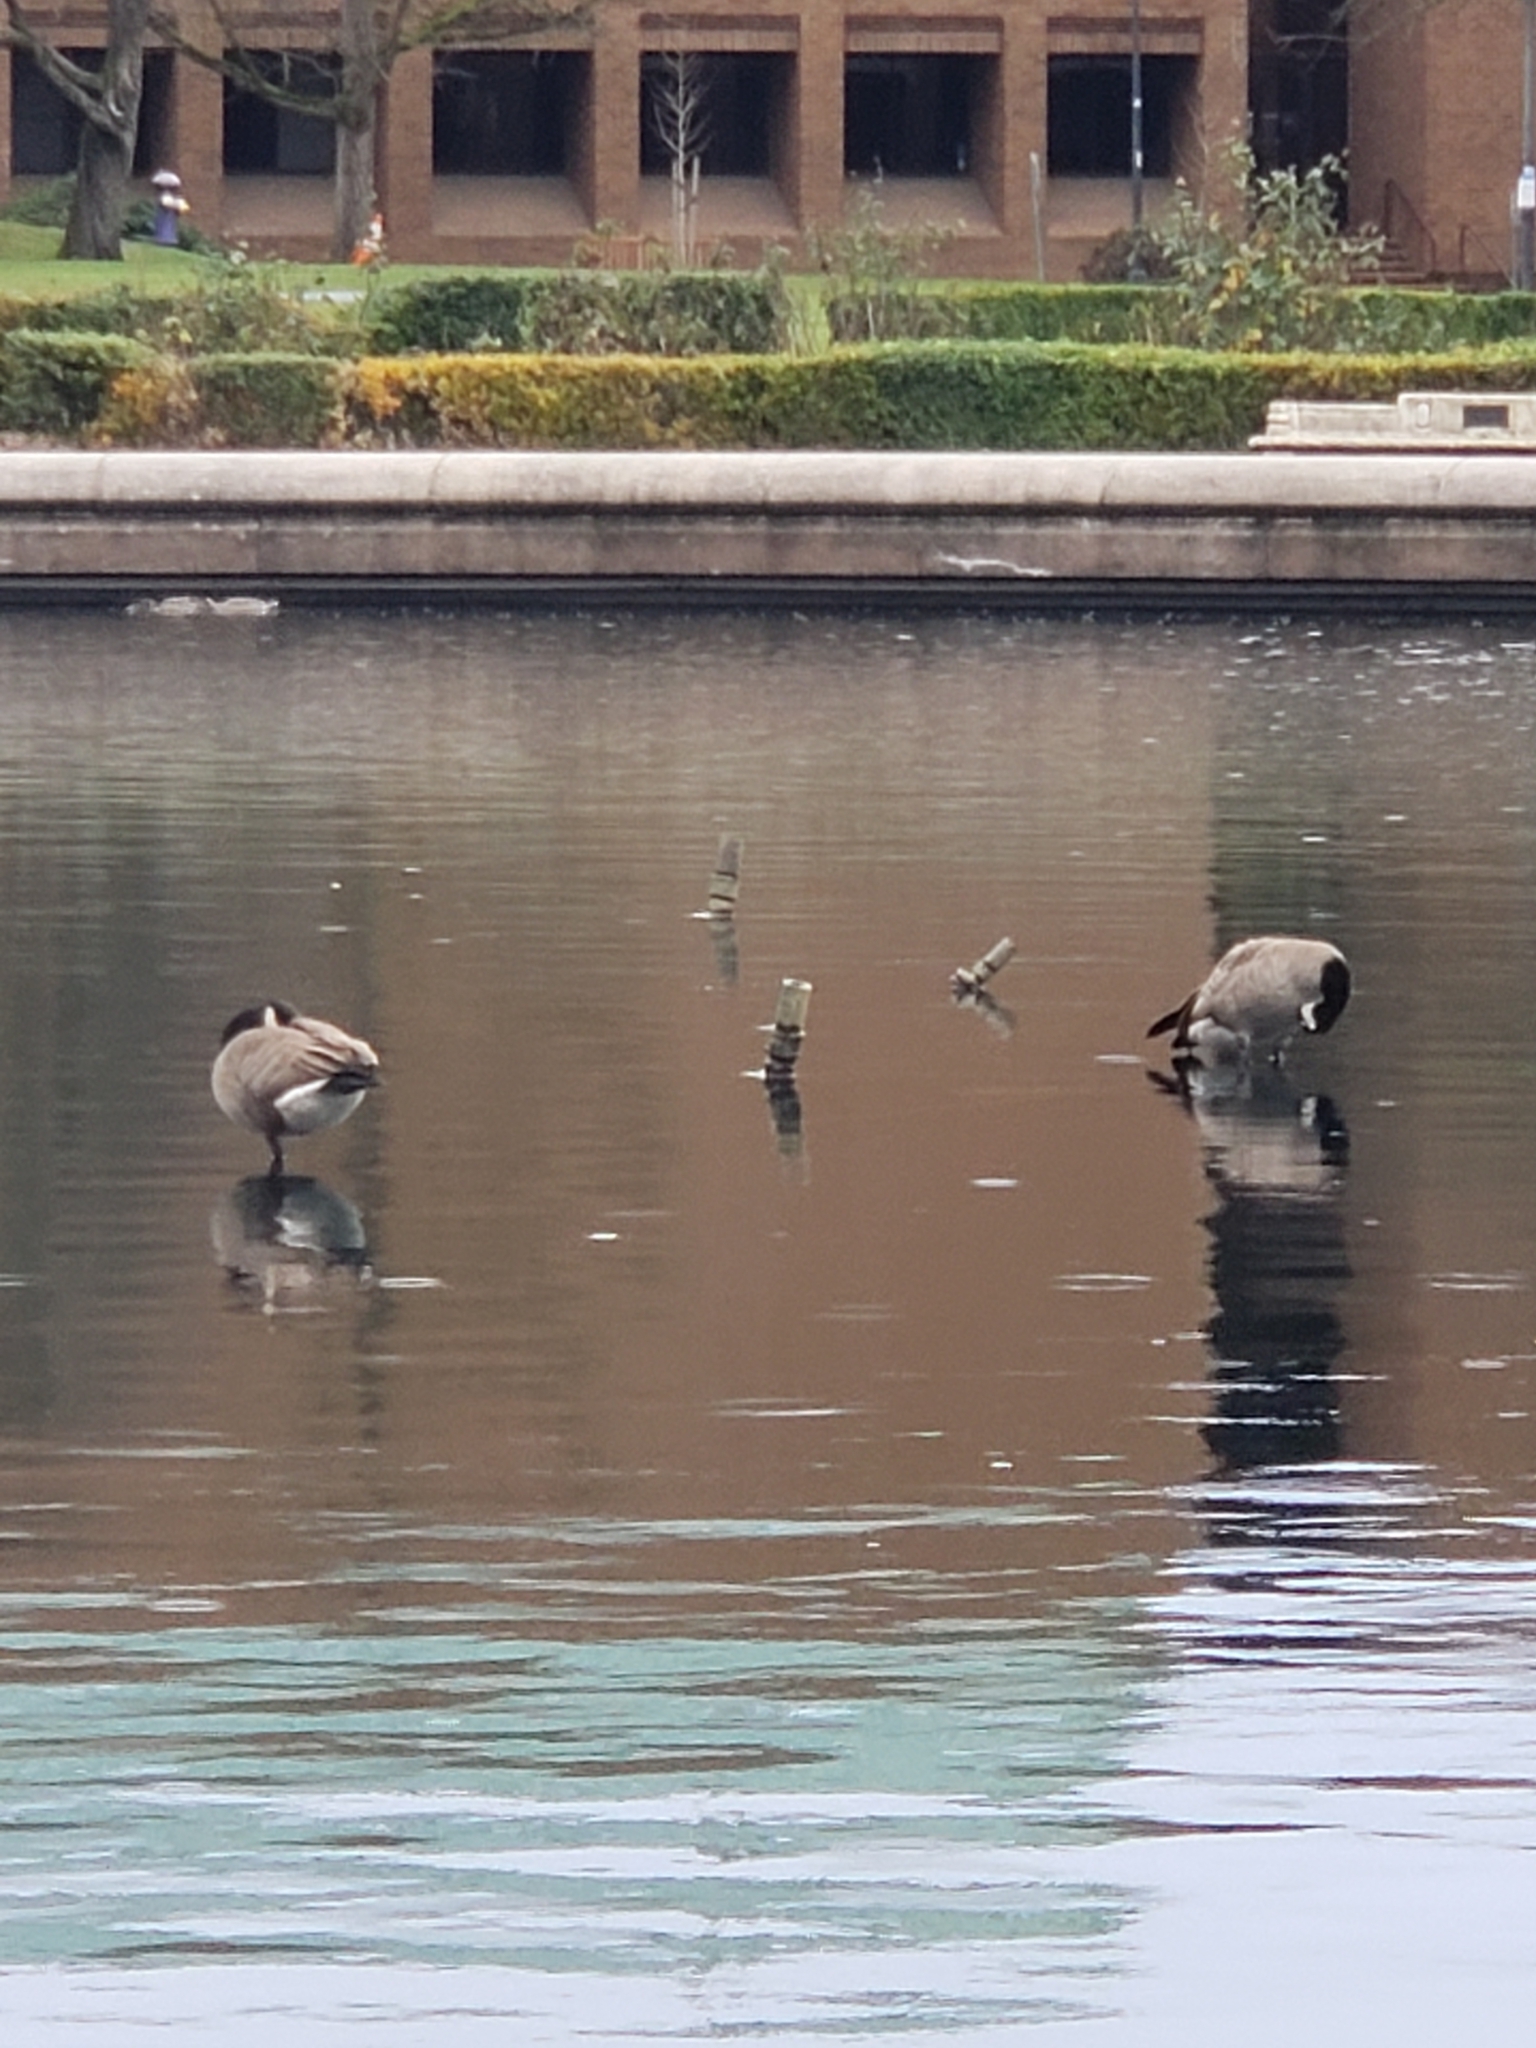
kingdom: Animalia
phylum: Chordata
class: Aves
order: Anseriformes
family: Anatidae
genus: Branta
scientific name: Branta canadensis
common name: Canada goose
